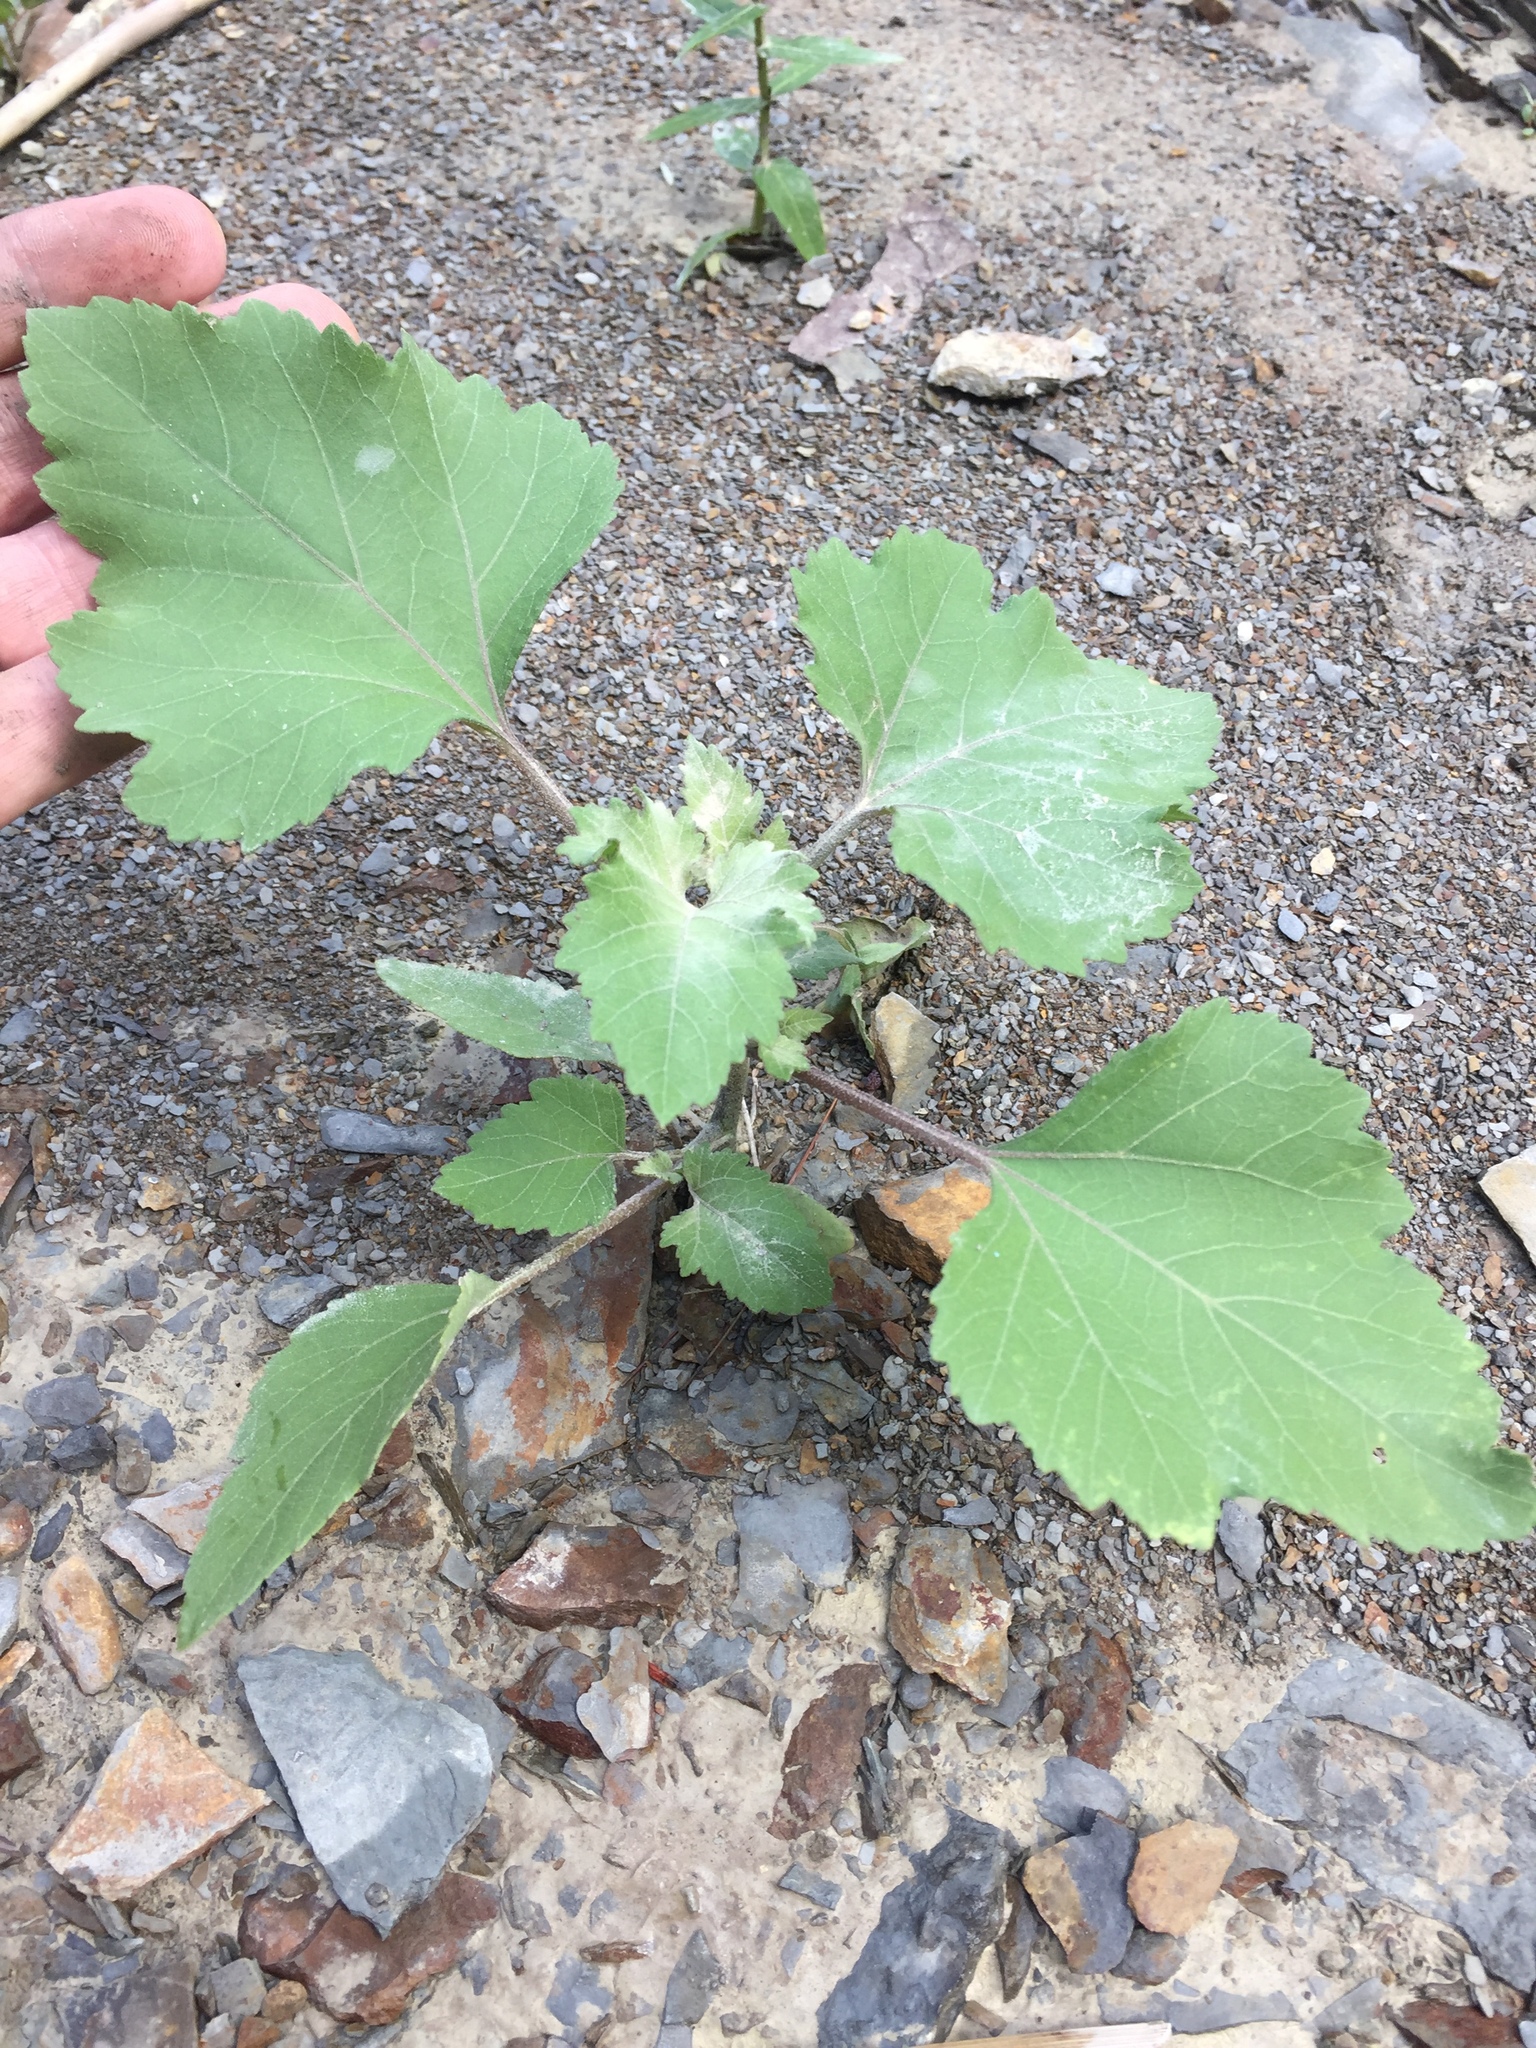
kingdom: Plantae
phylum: Tracheophyta
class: Magnoliopsida
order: Asterales
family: Asteraceae
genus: Xanthium
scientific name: Xanthium strumarium
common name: Rough cocklebur
